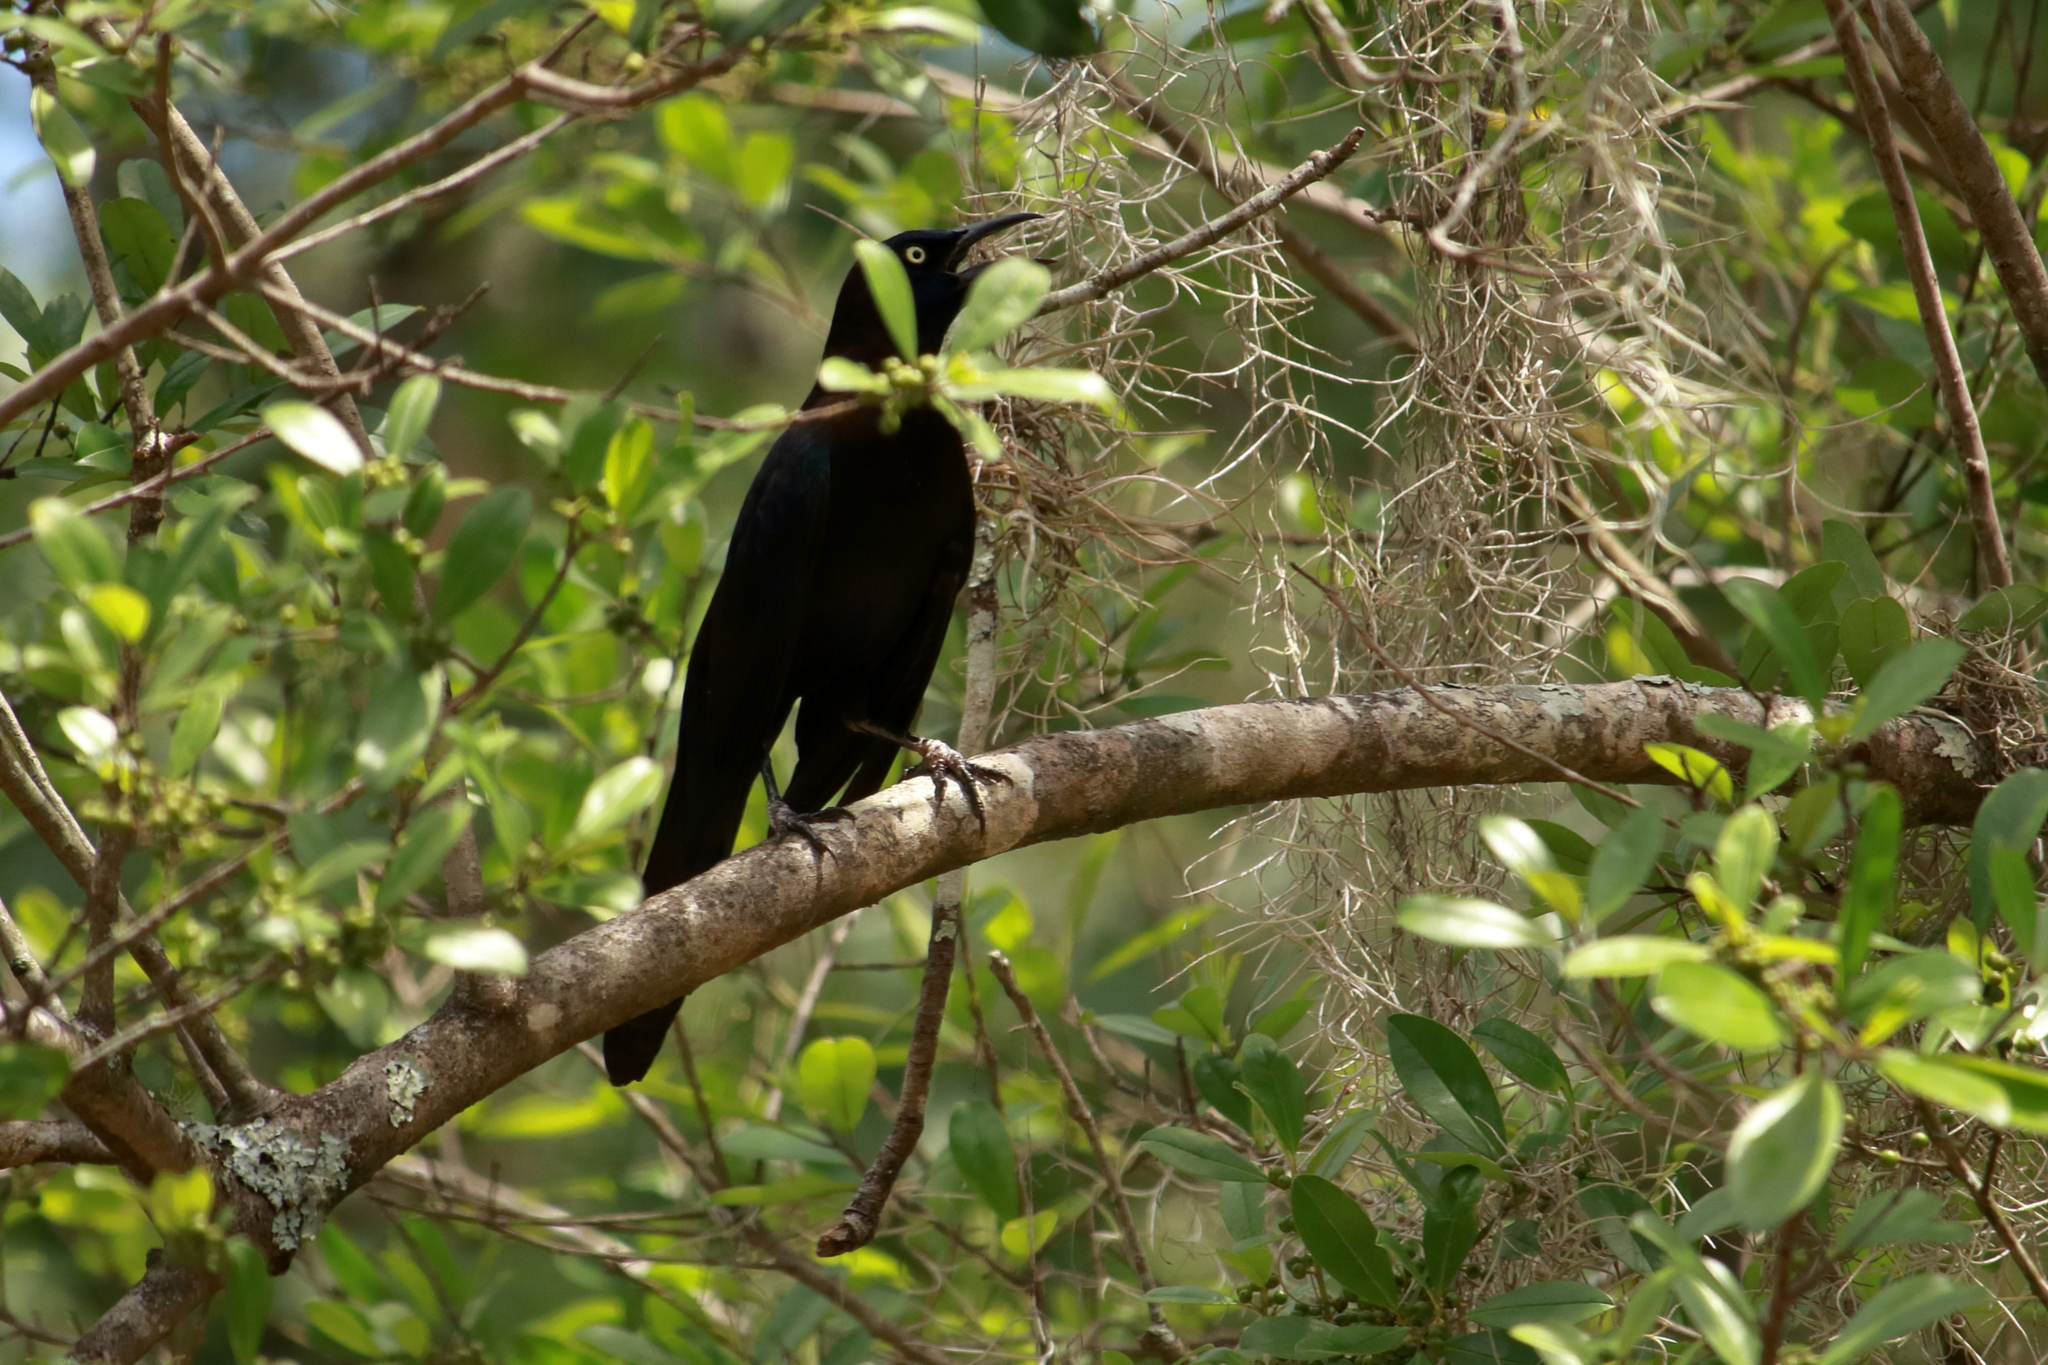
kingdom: Animalia
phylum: Chordata
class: Aves
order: Passeriformes
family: Icteridae
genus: Quiscalus
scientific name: Quiscalus quiscula
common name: Common grackle
